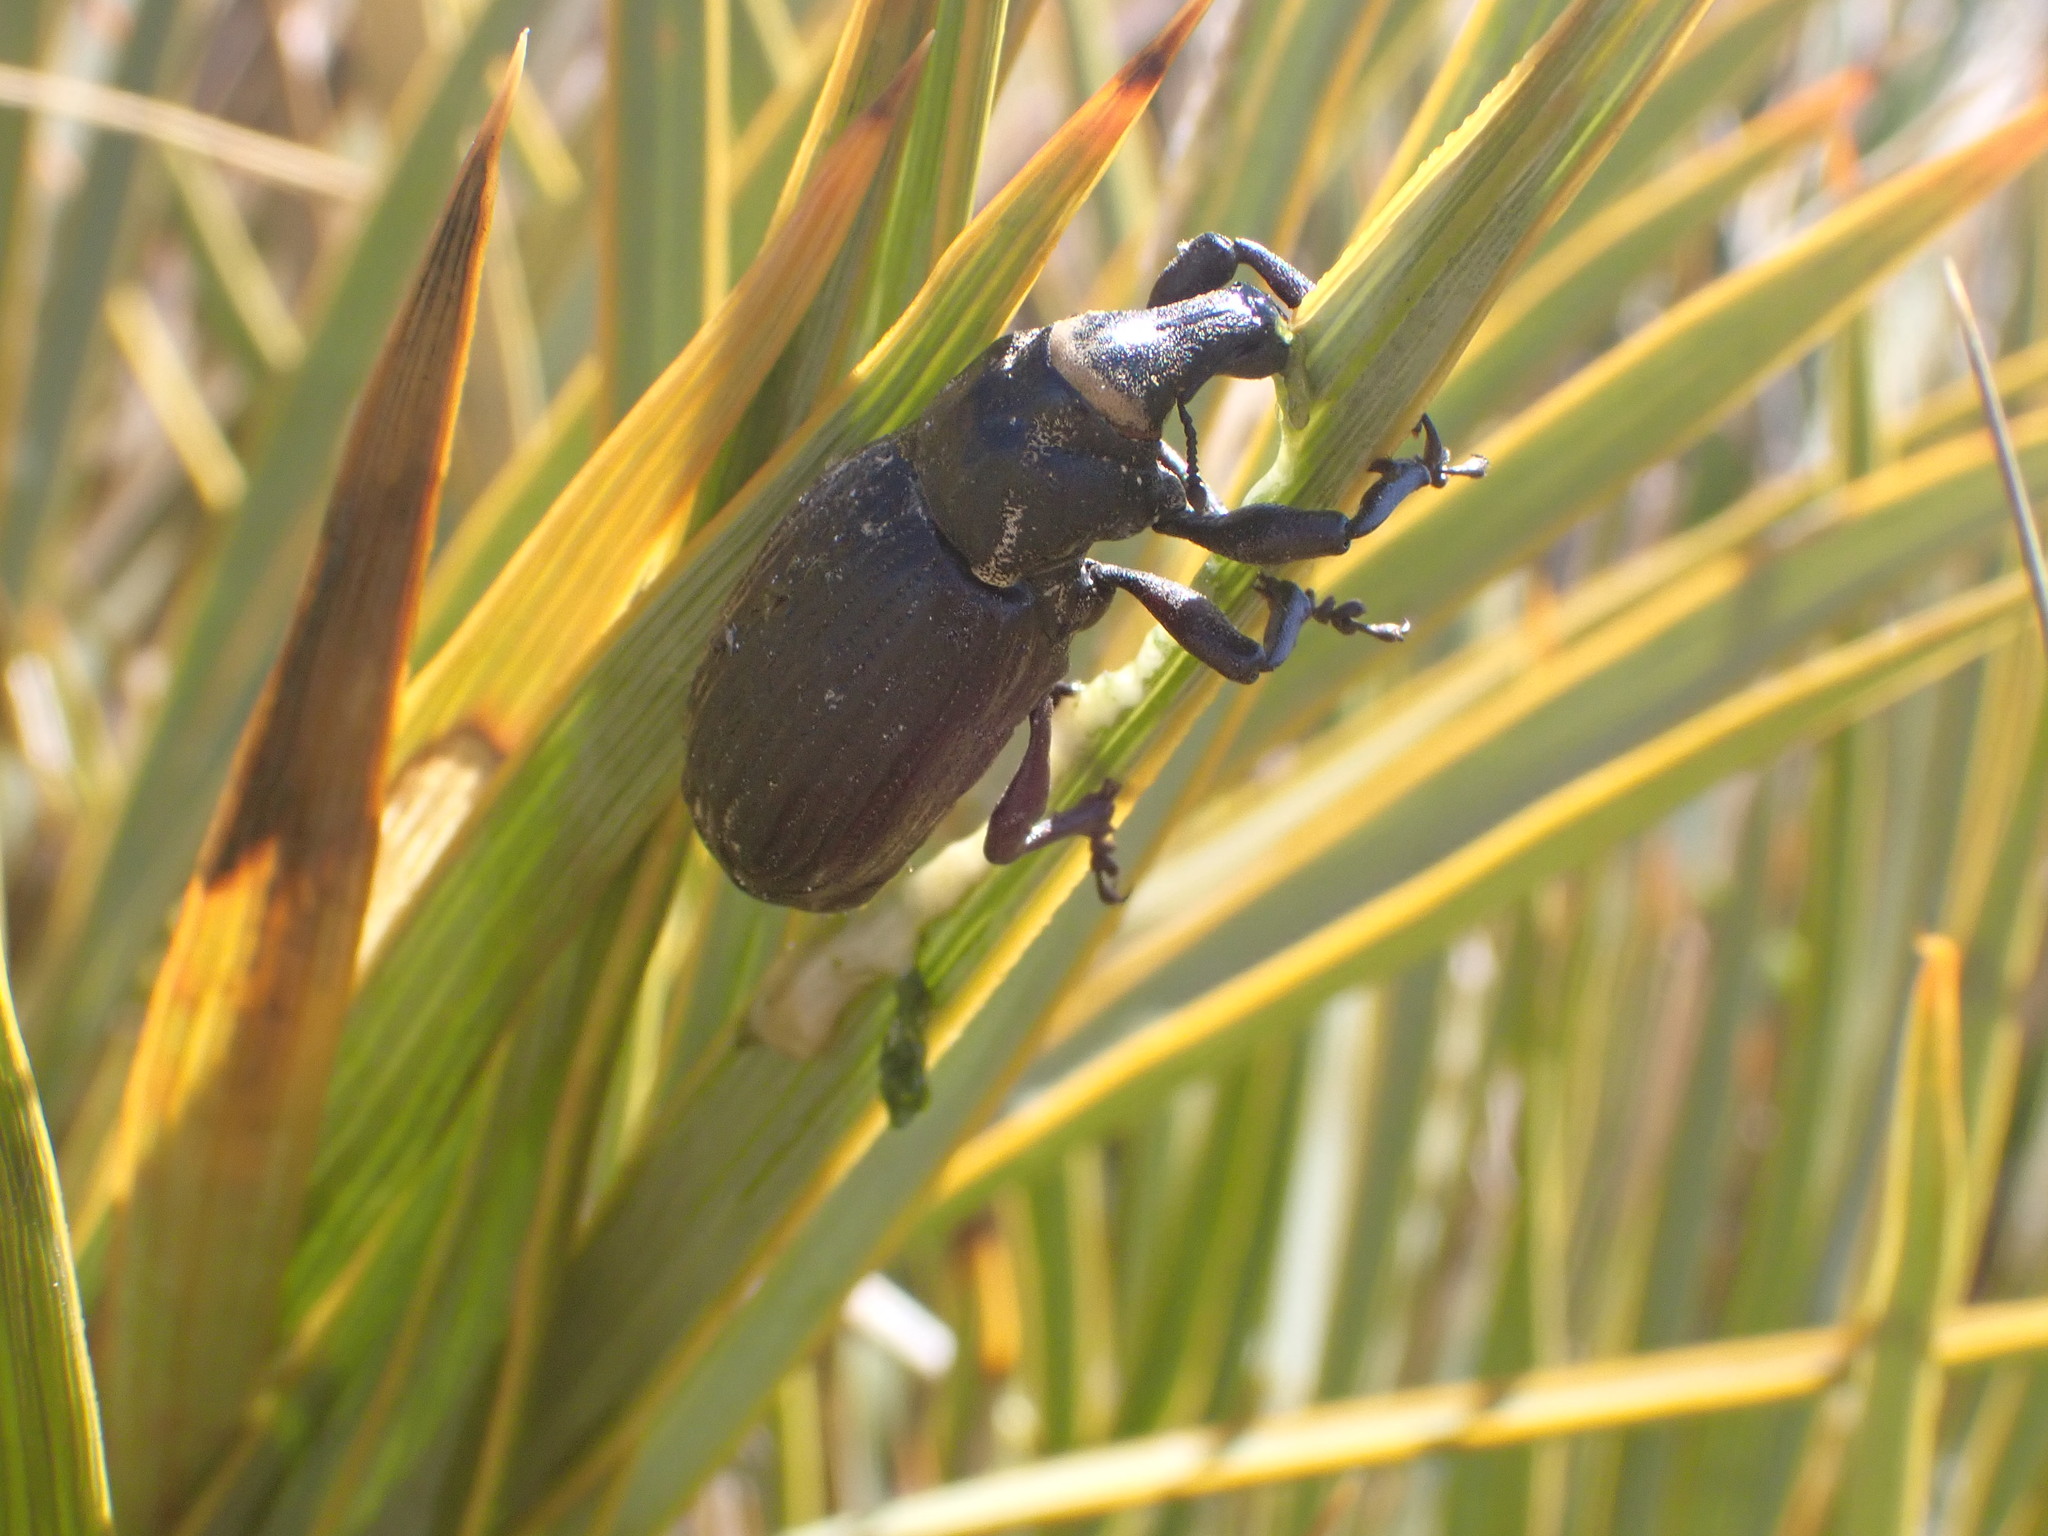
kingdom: Animalia
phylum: Arthropoda
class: Insecta
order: Coleoptera
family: Curculionidae
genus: Lyperobius
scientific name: Lyperobius huttoni
